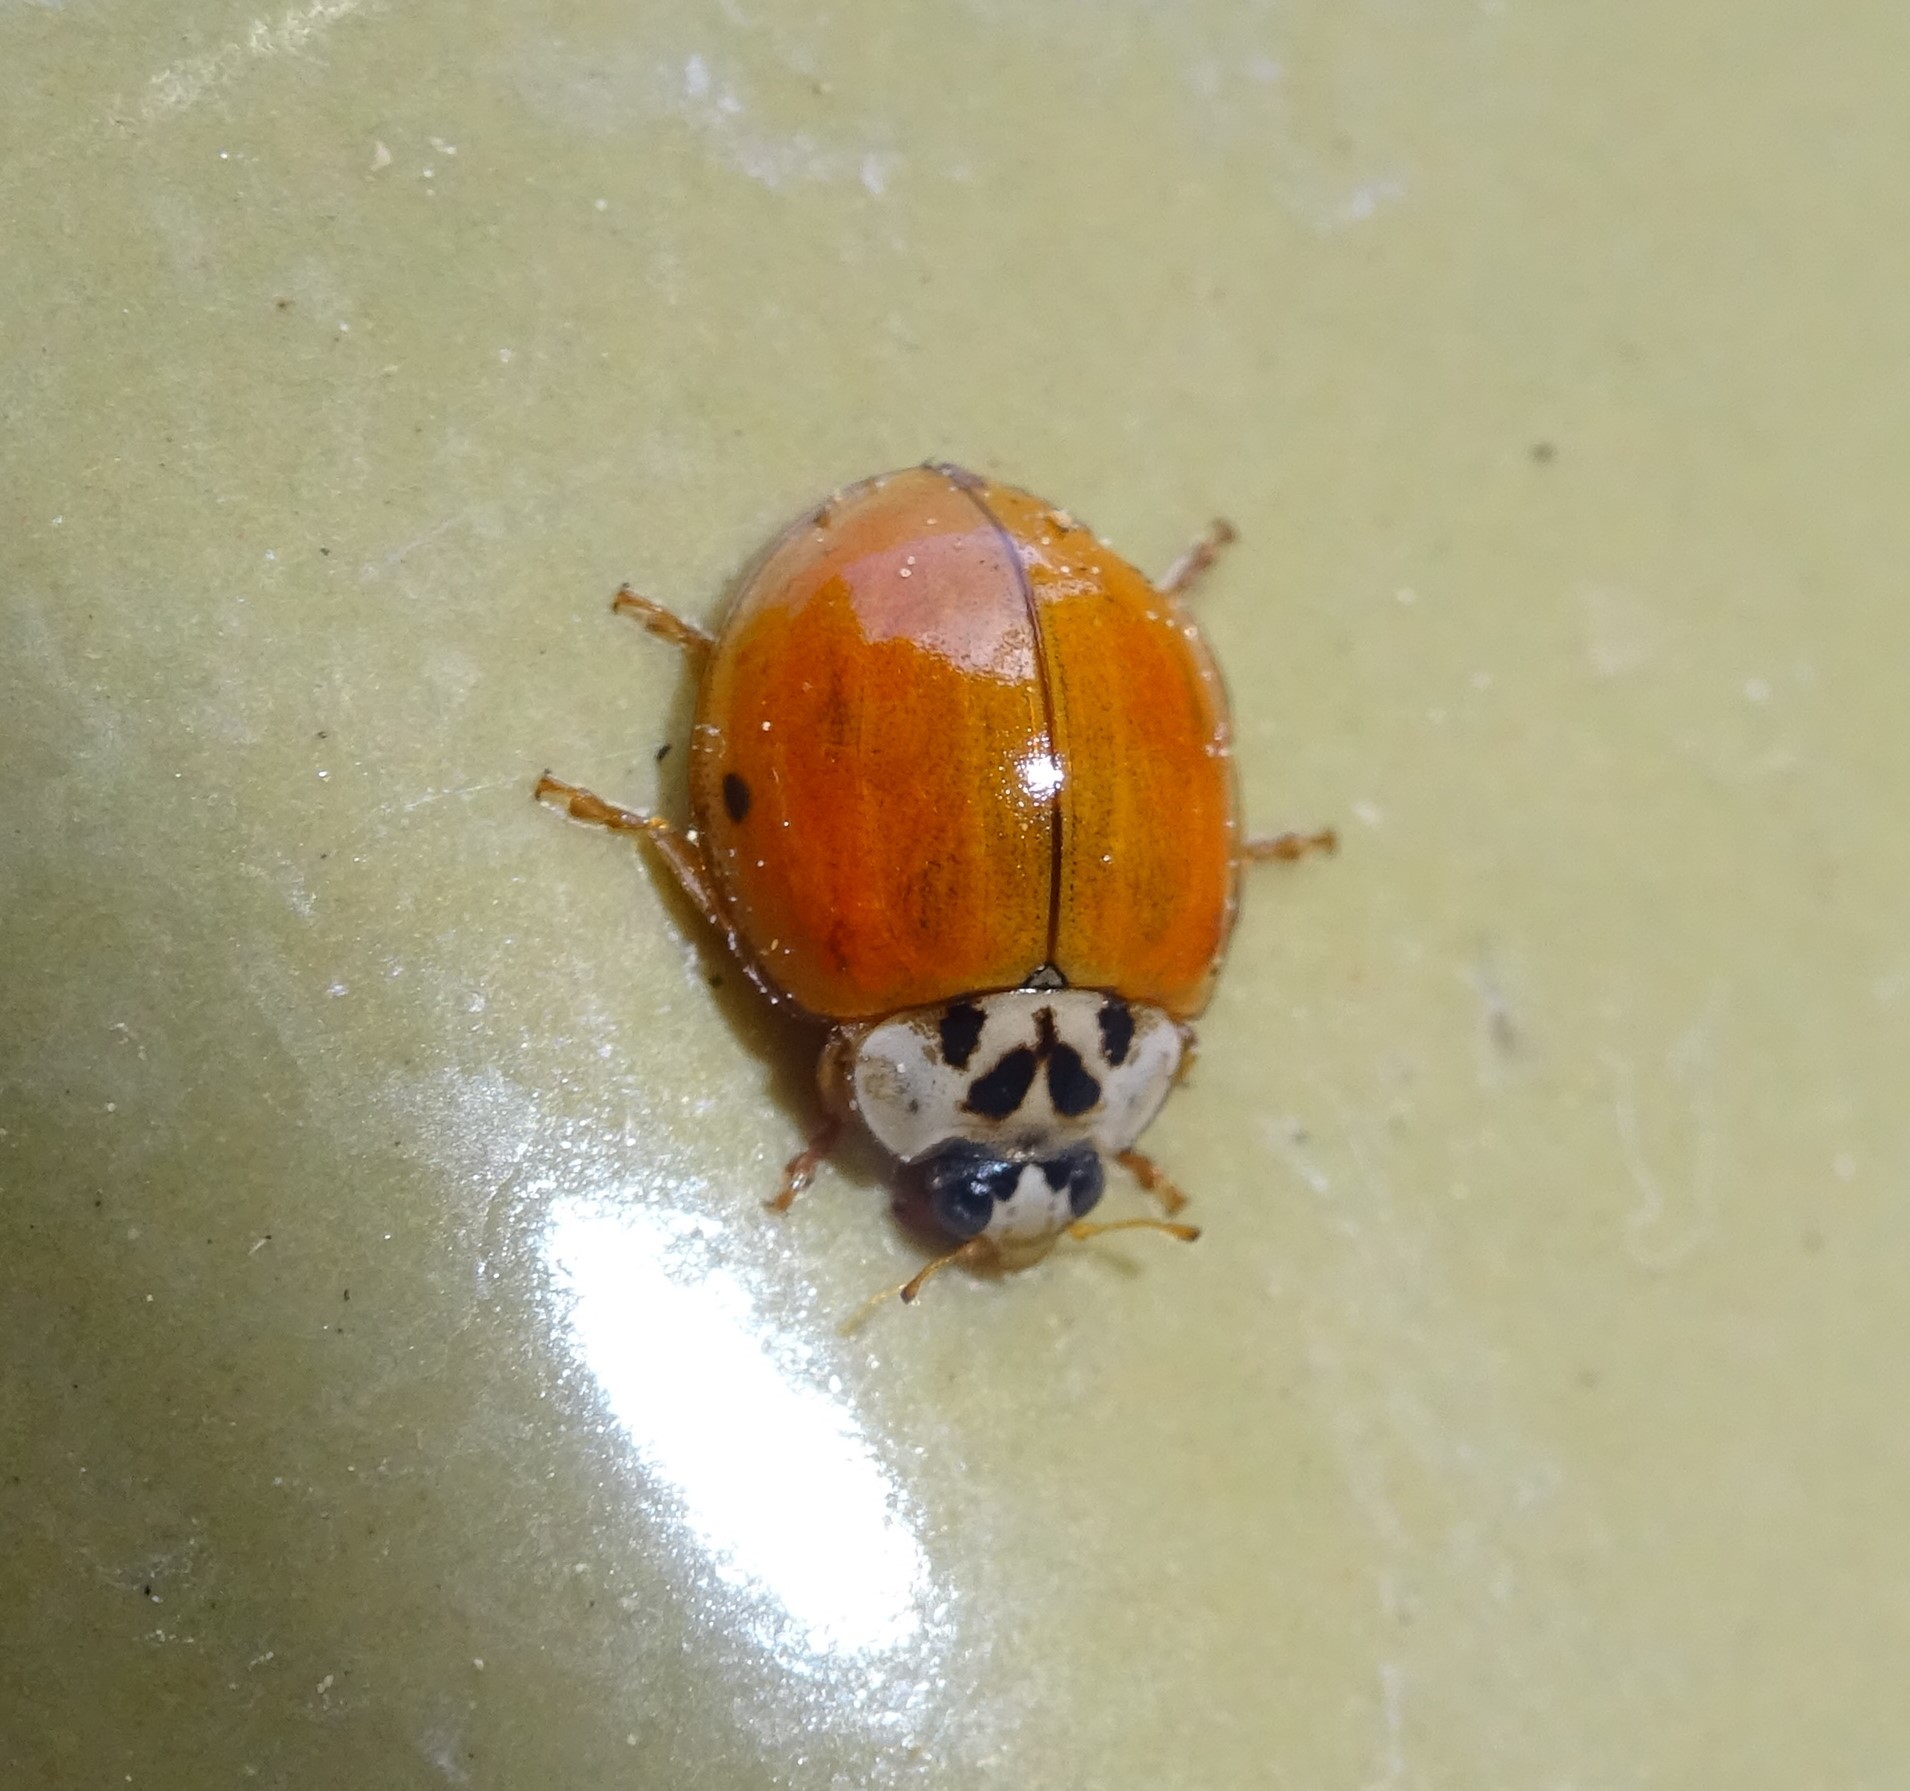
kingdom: Animalia
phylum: Arthropoda
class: Insecta
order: Coleoptera
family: Coccinellidae
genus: Harmonia
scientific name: Harmonia axyridis
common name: Harlequin ladybird
